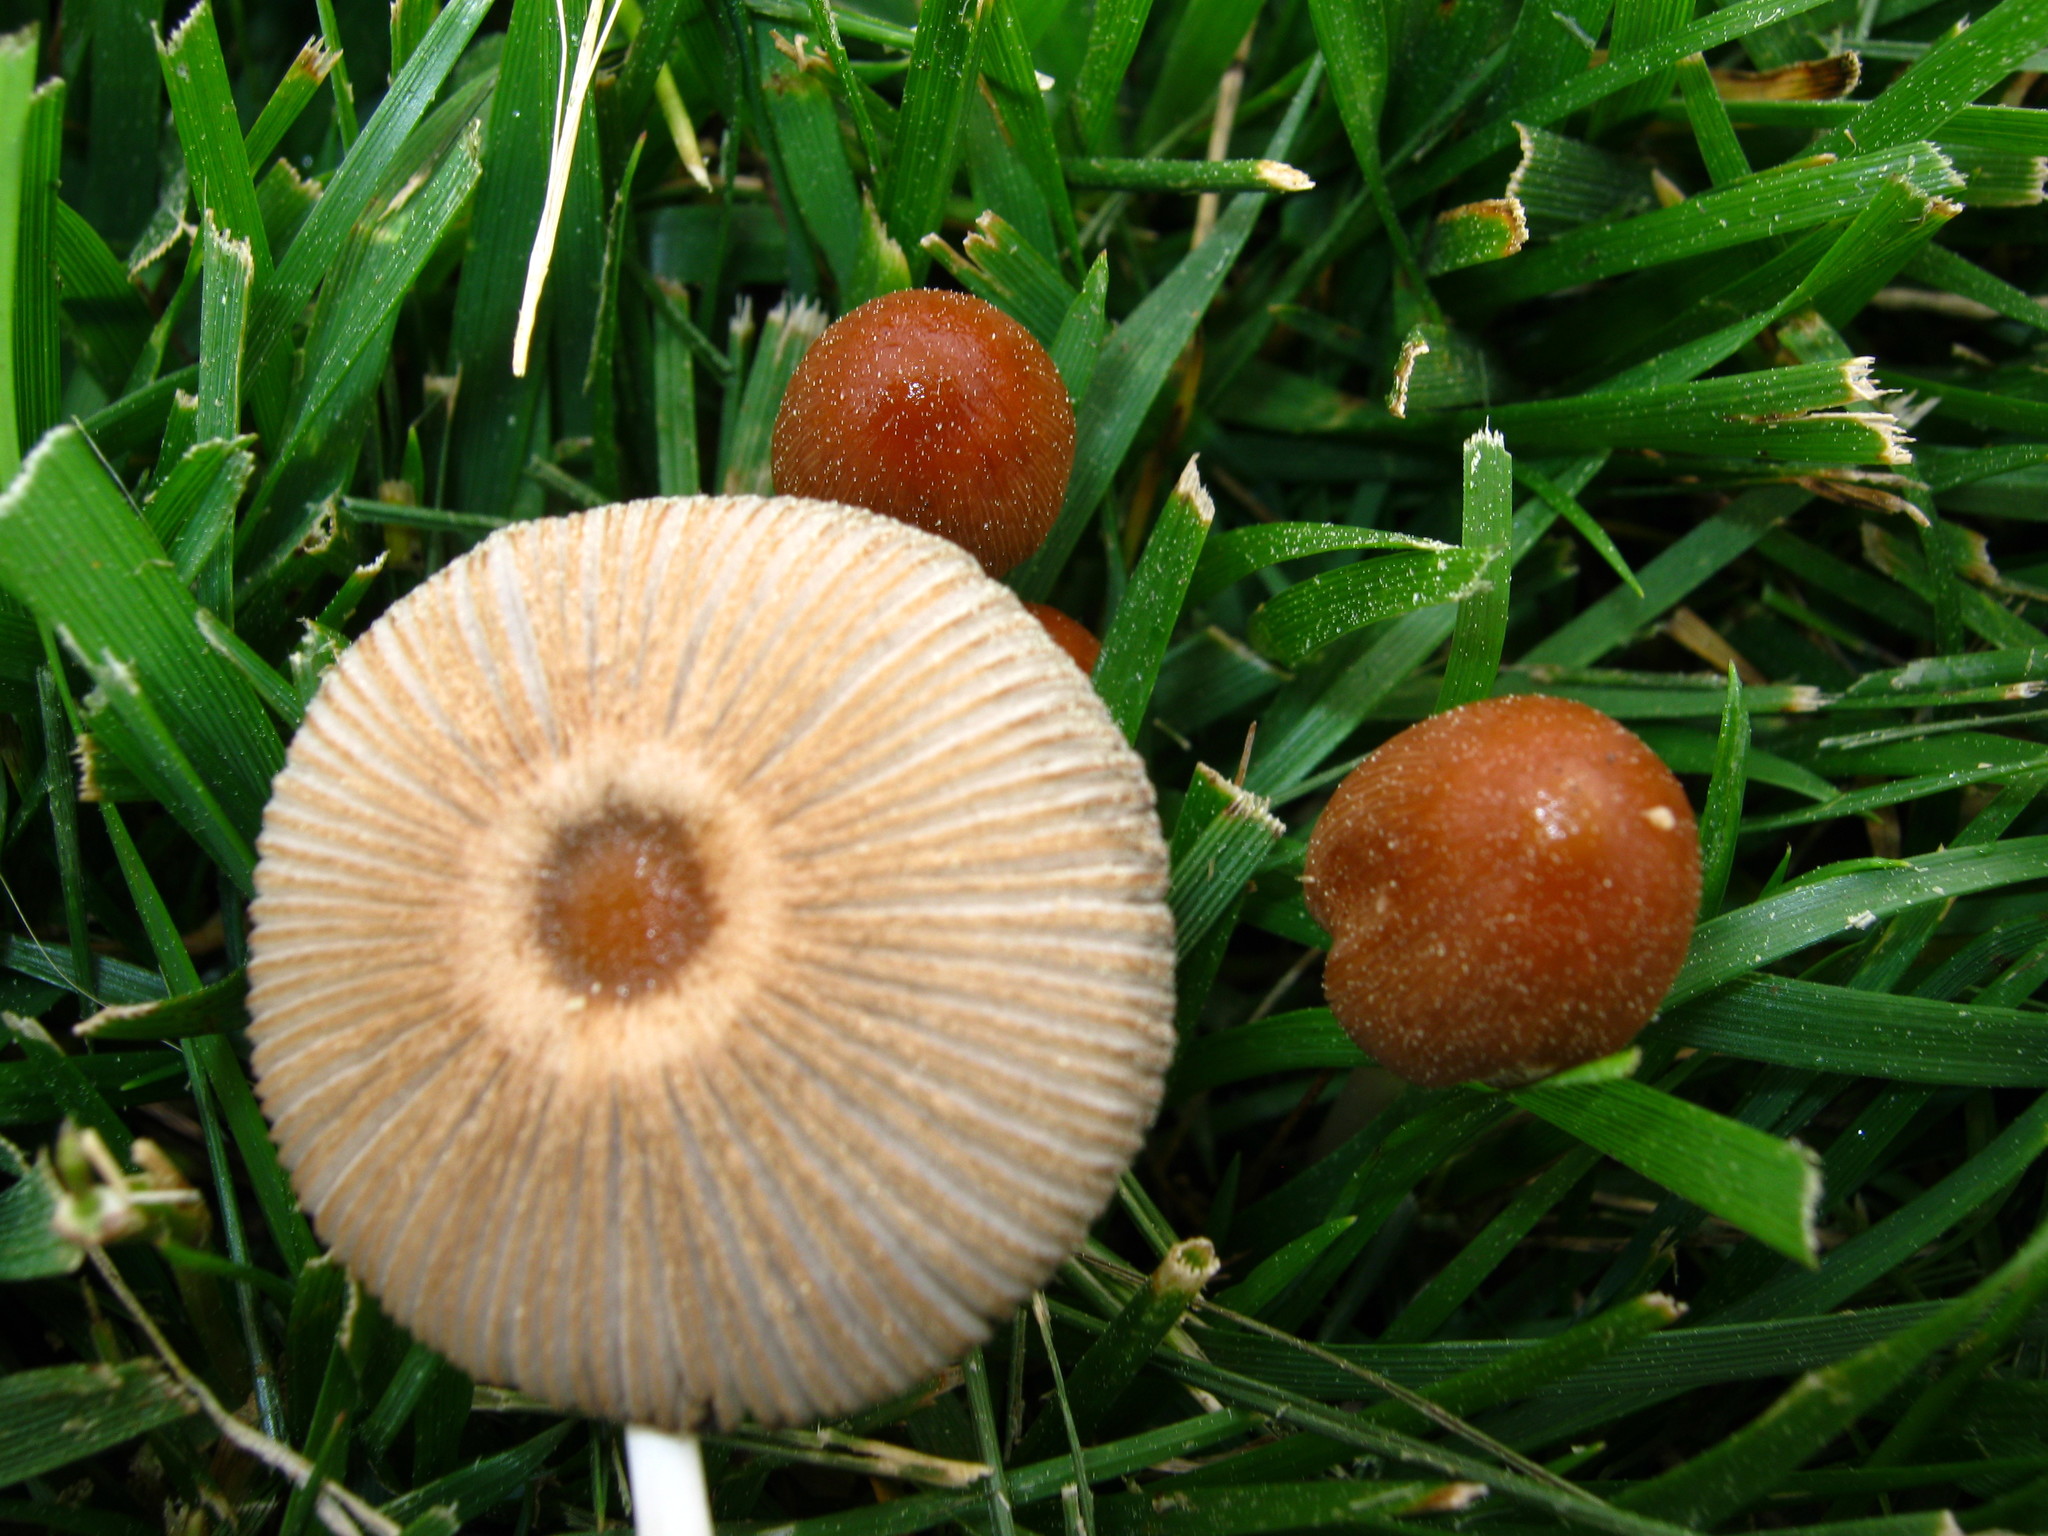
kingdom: Fungi
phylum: Basidiomycota
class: Agaricomycetes
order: Agaricales
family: Psathyrellaceae
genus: Parasola
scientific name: Parasola auricoma
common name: Goldenhaired inkcap
